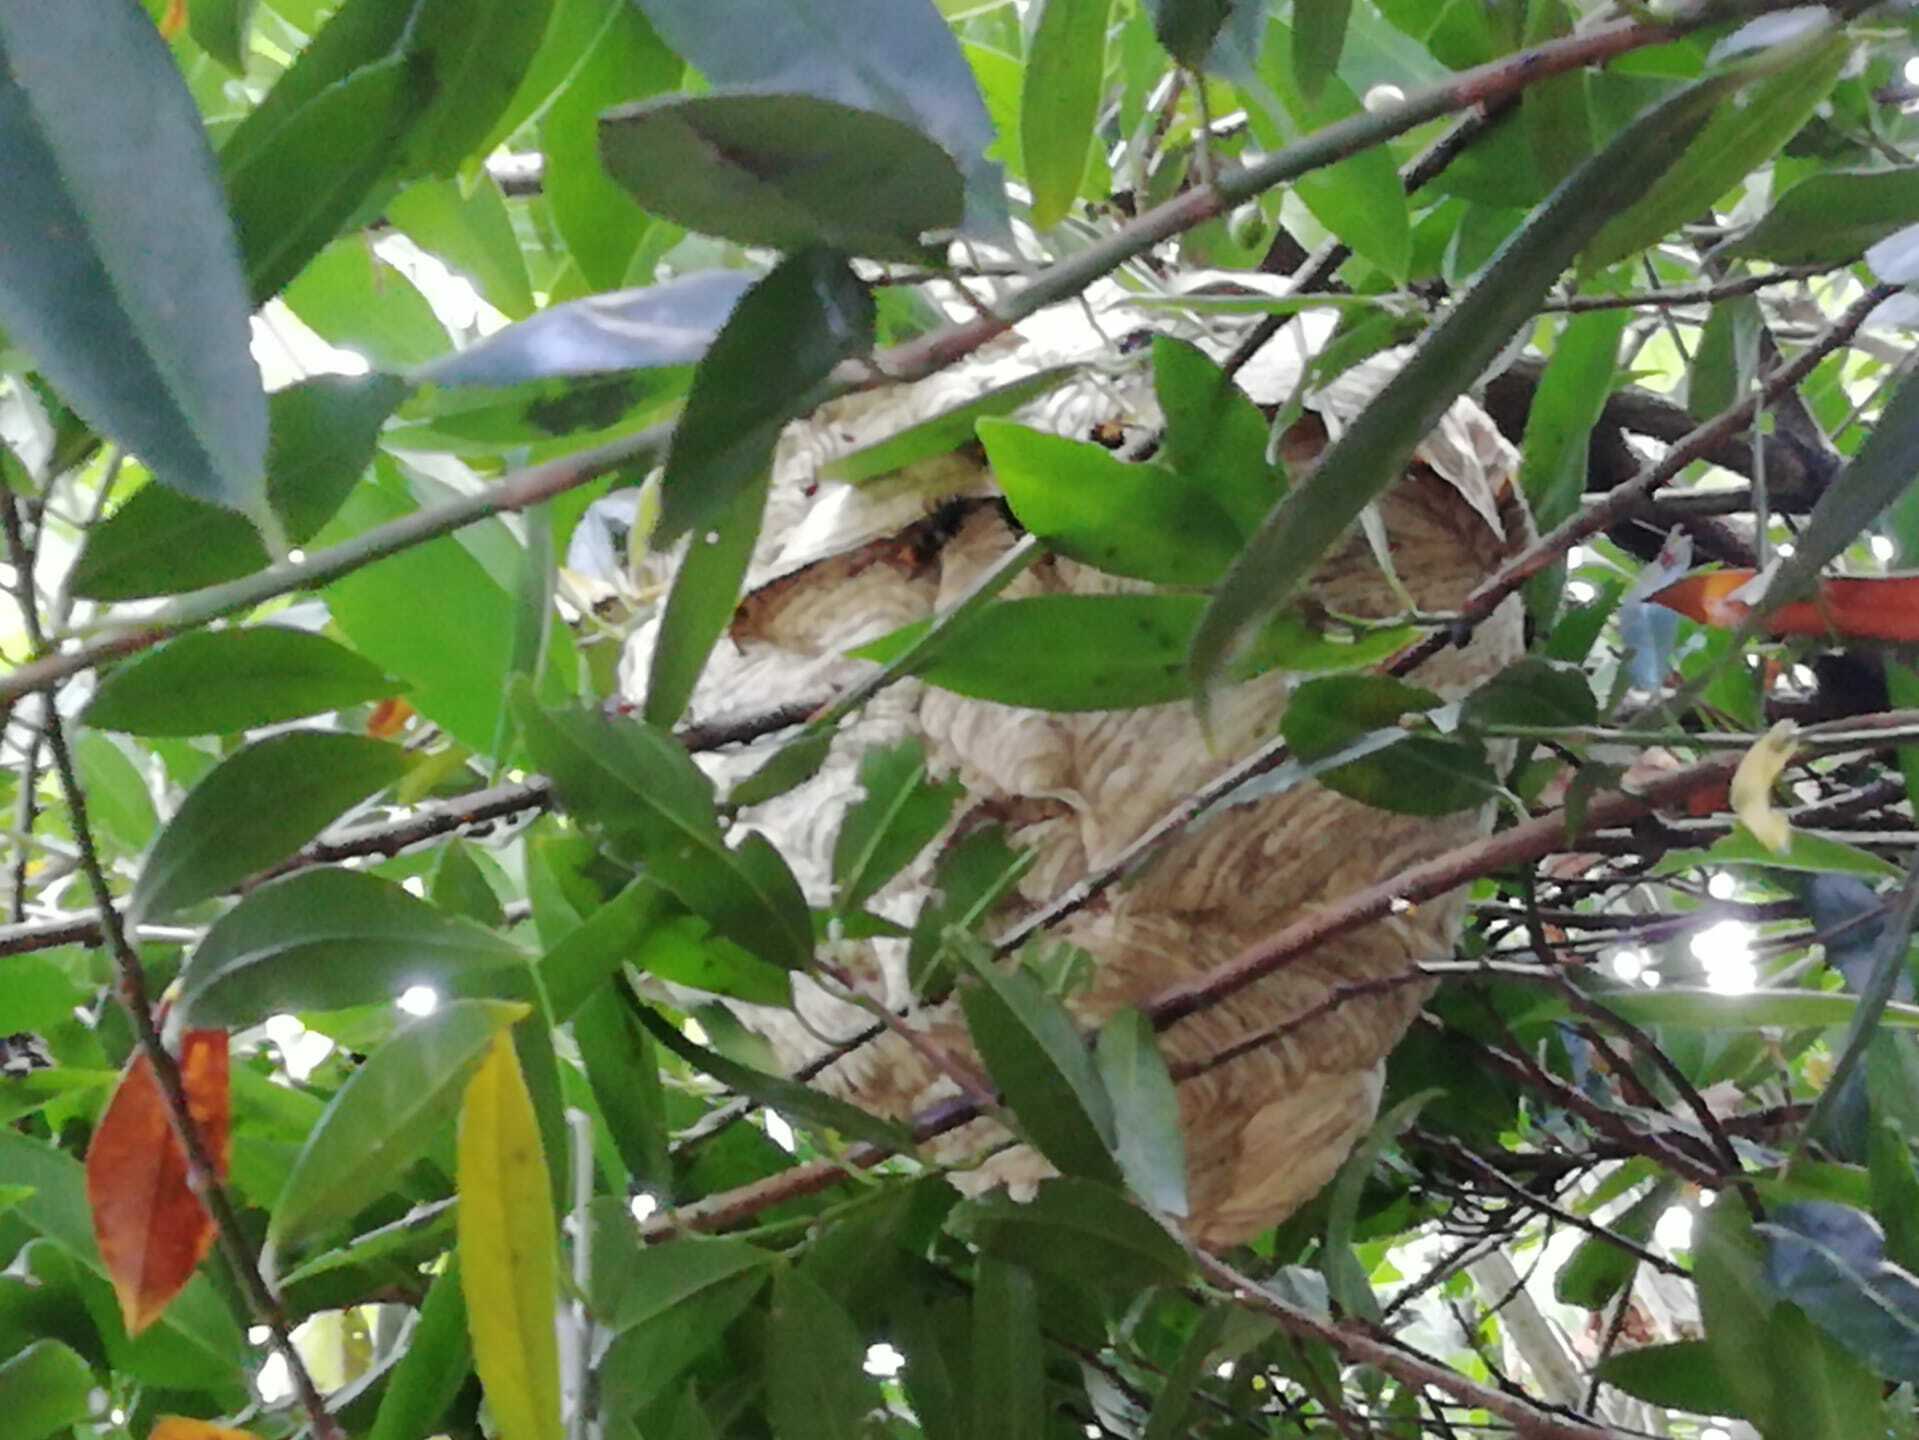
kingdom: Animalia
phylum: Arthropoda
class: Insecta
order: Hymenoptera
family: Vespidae
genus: Vespa
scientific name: Vespa velutina
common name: Asian hornet
